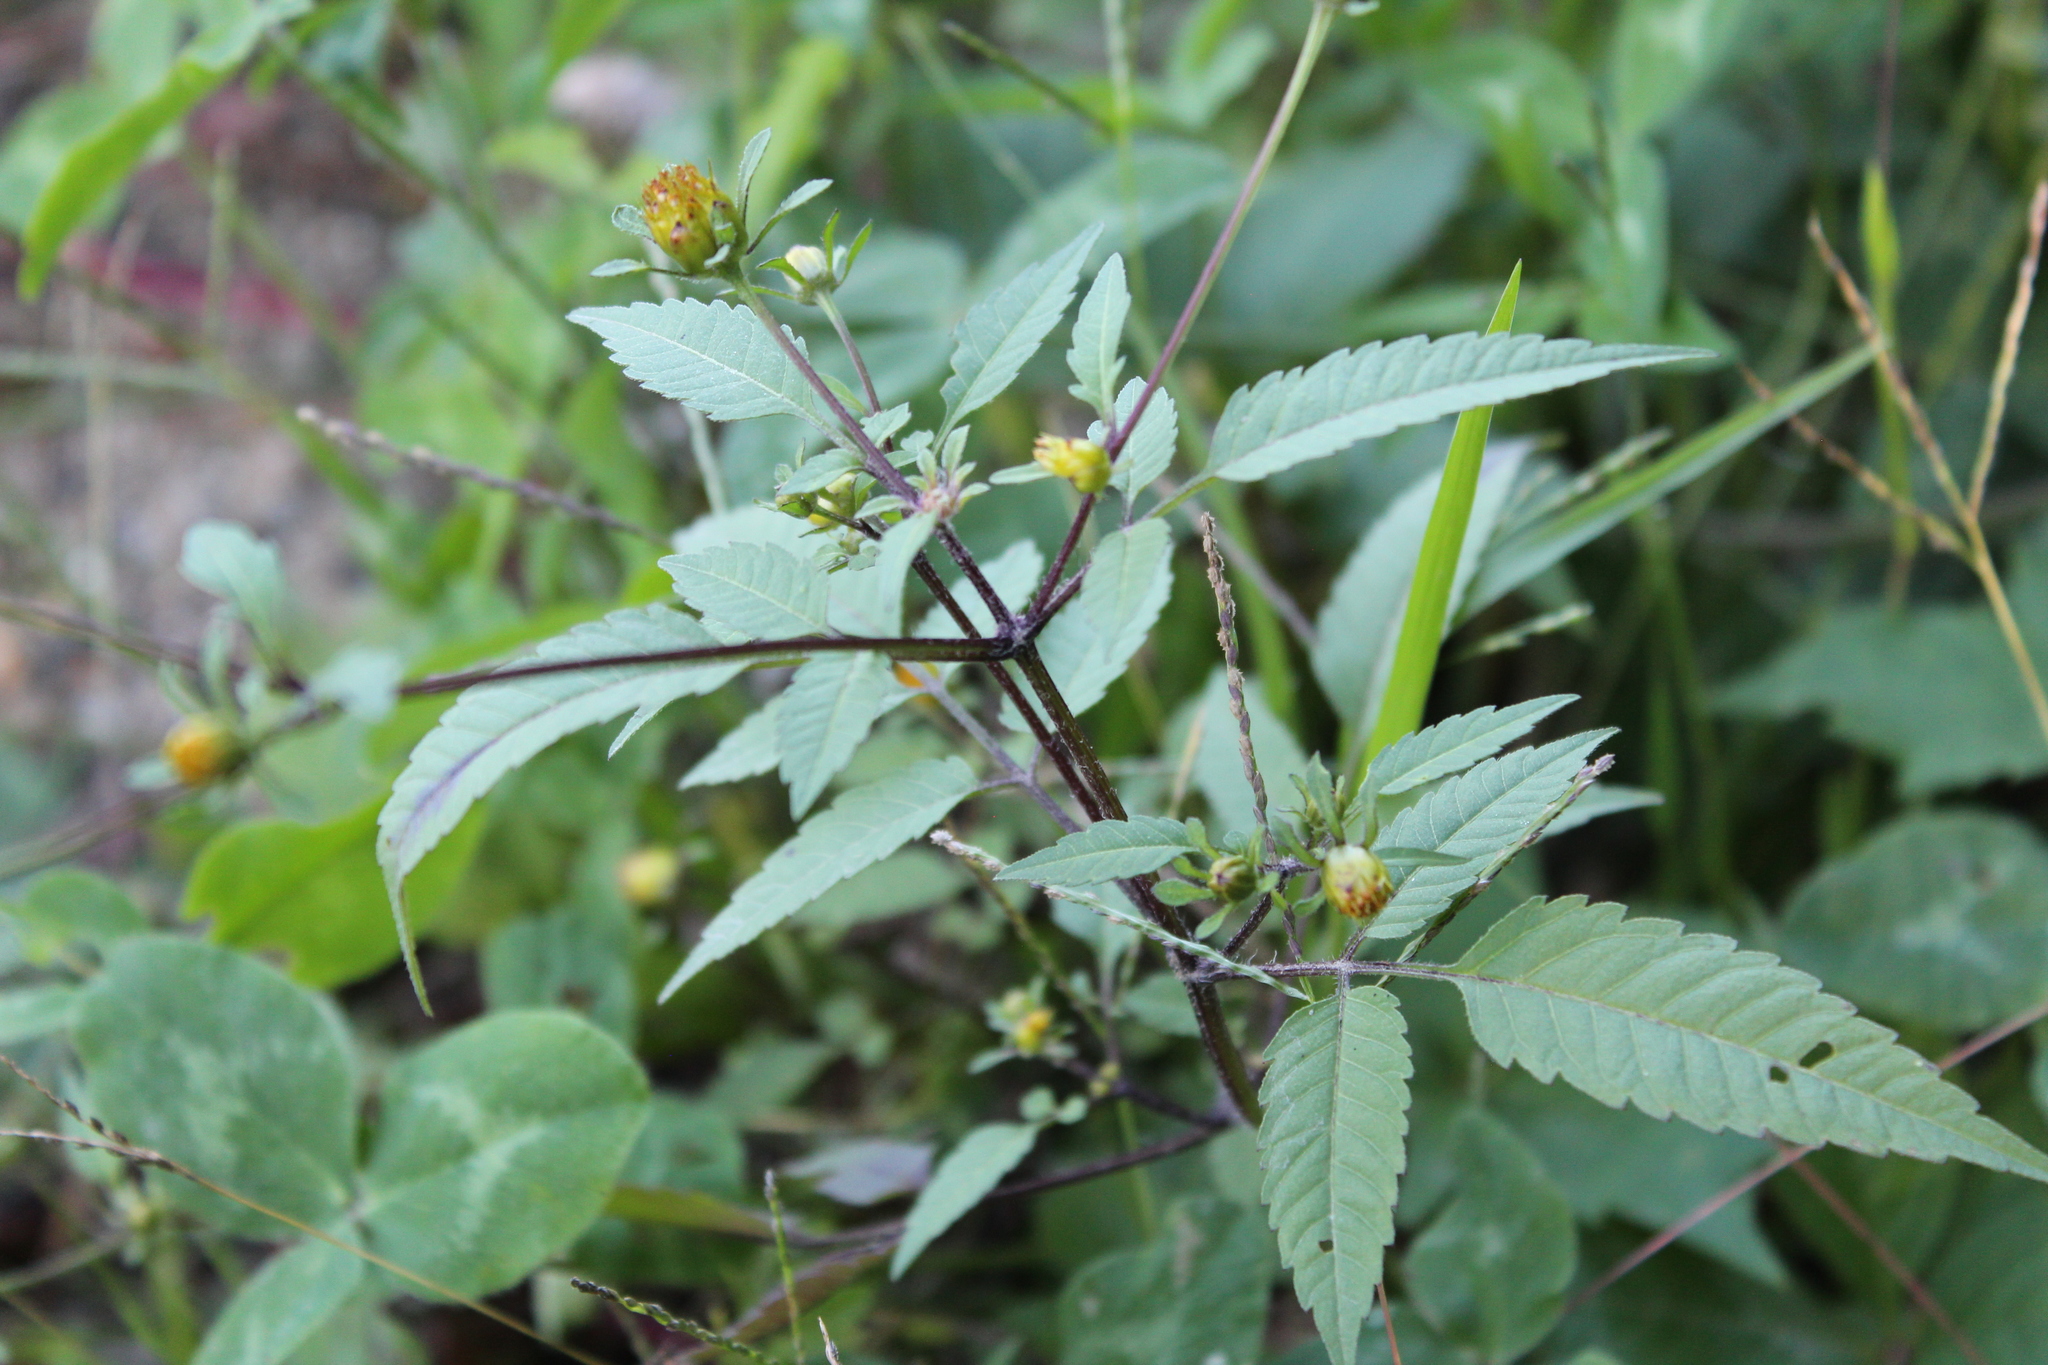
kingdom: Plantae
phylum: Tracheophyta
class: Magnoliopsida
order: Asterales
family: Asteraceae
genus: Bidens
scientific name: Bidens frondosa
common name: Beggarticks
